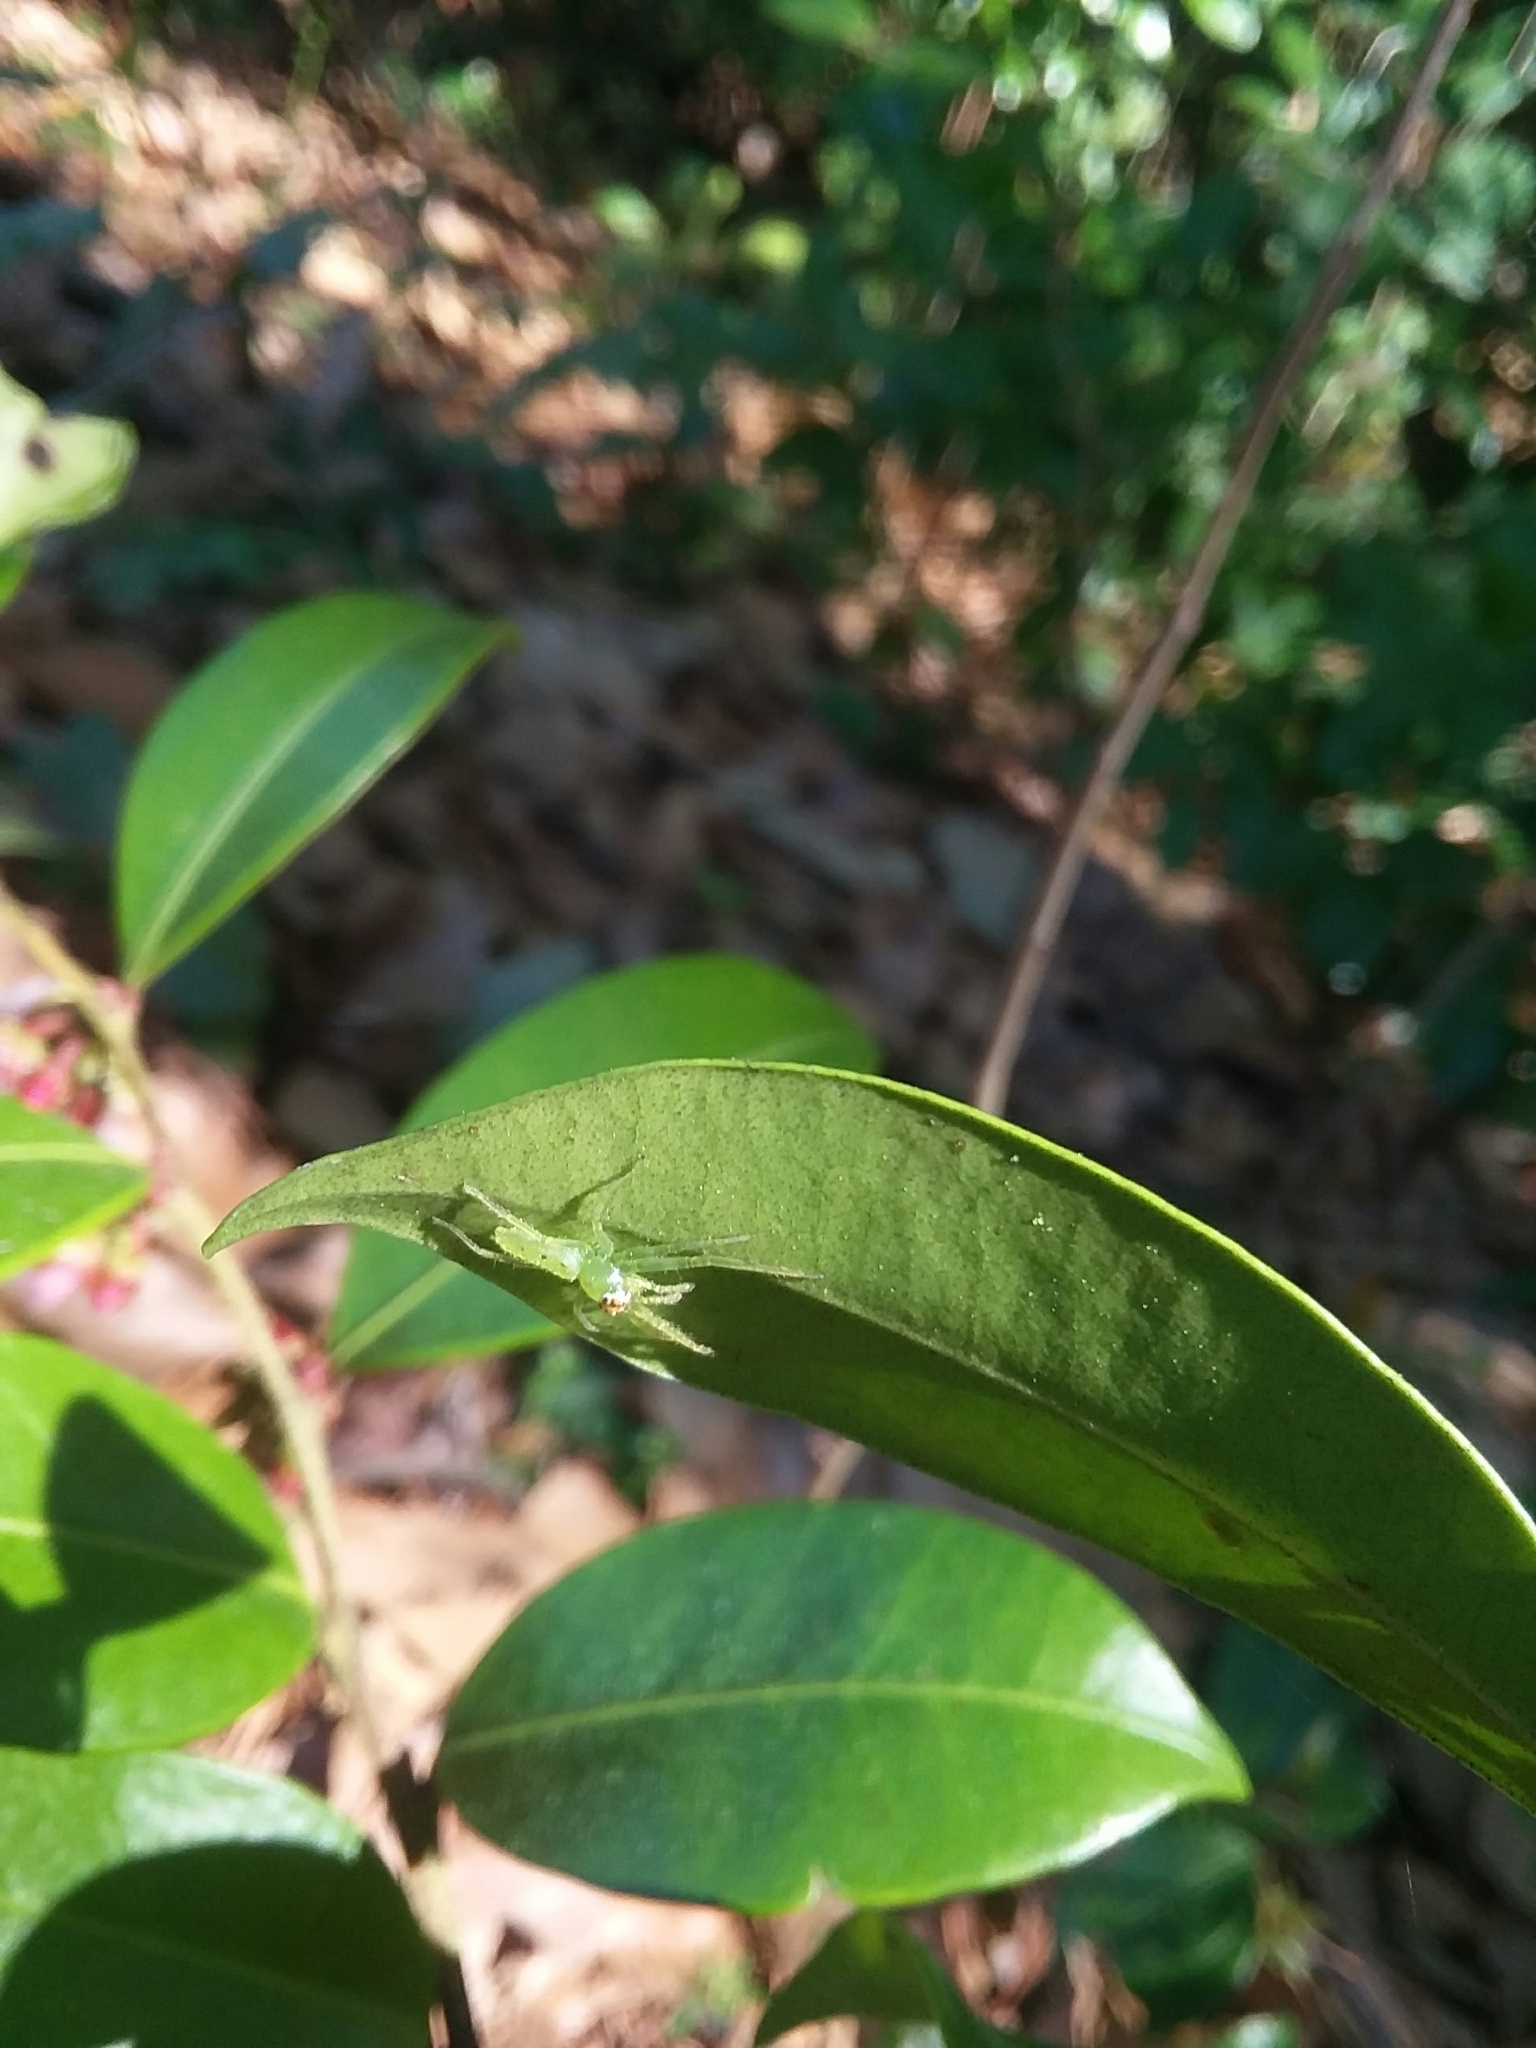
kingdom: Animalia
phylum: Arthropoda
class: Arachnida
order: Araneae
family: Salticidae
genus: Lyssomanes
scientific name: Lyssomanes viridis
